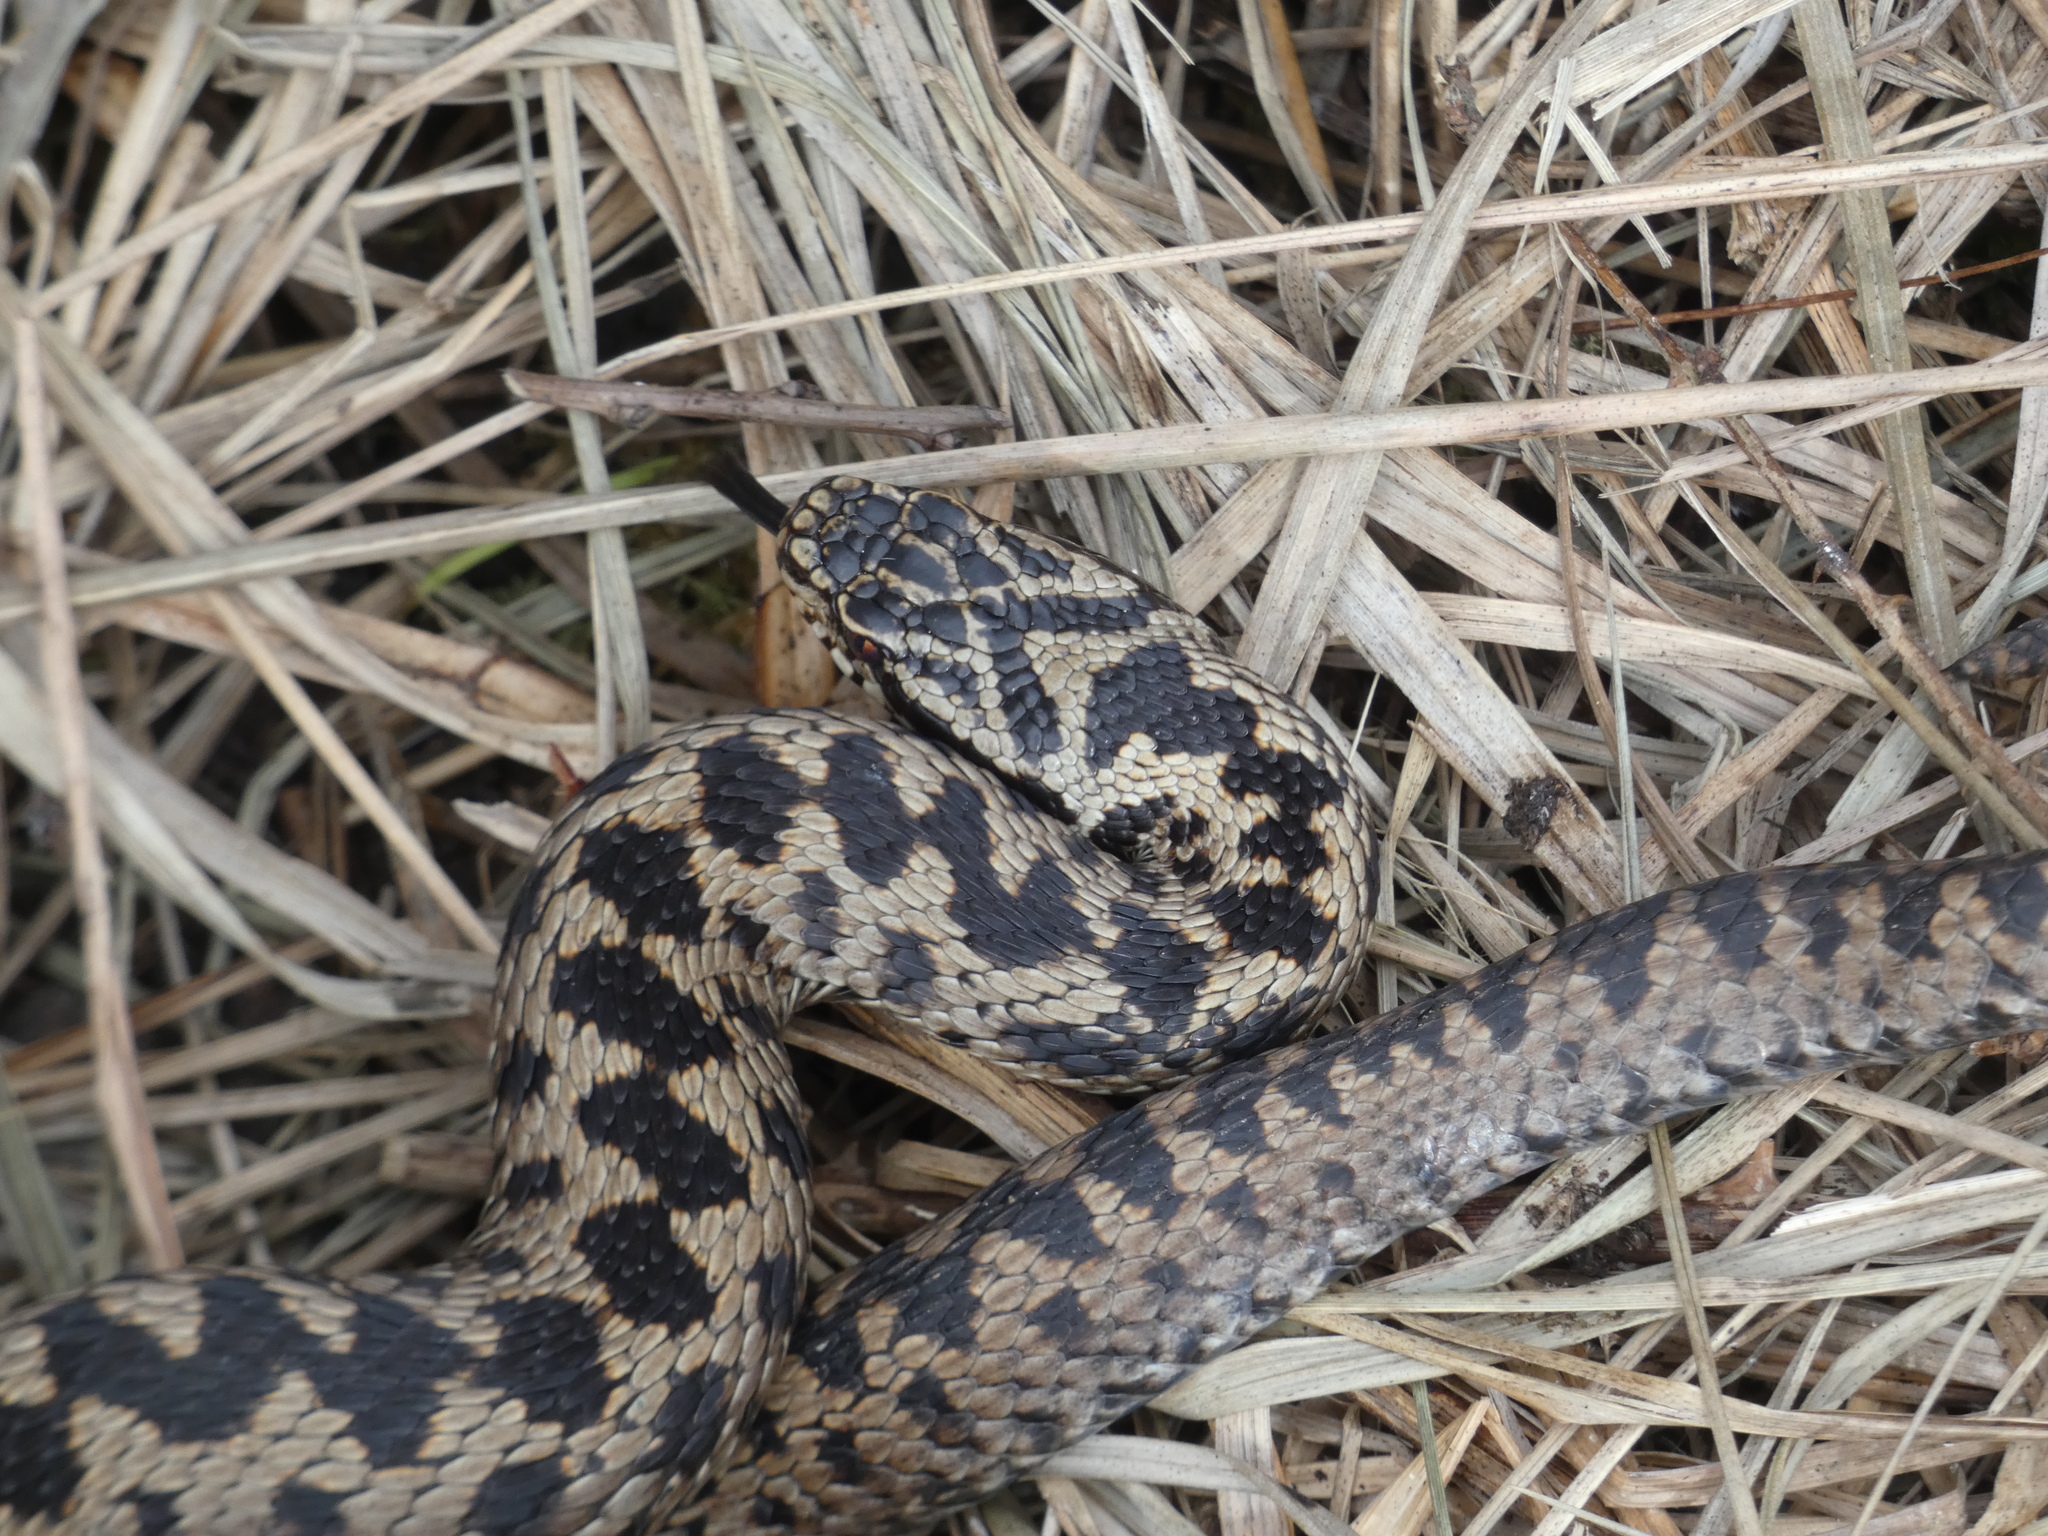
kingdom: Animalia
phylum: Chordata
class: Squamata
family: Viperidae
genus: Vipera
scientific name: Vipera berus
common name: Adder
